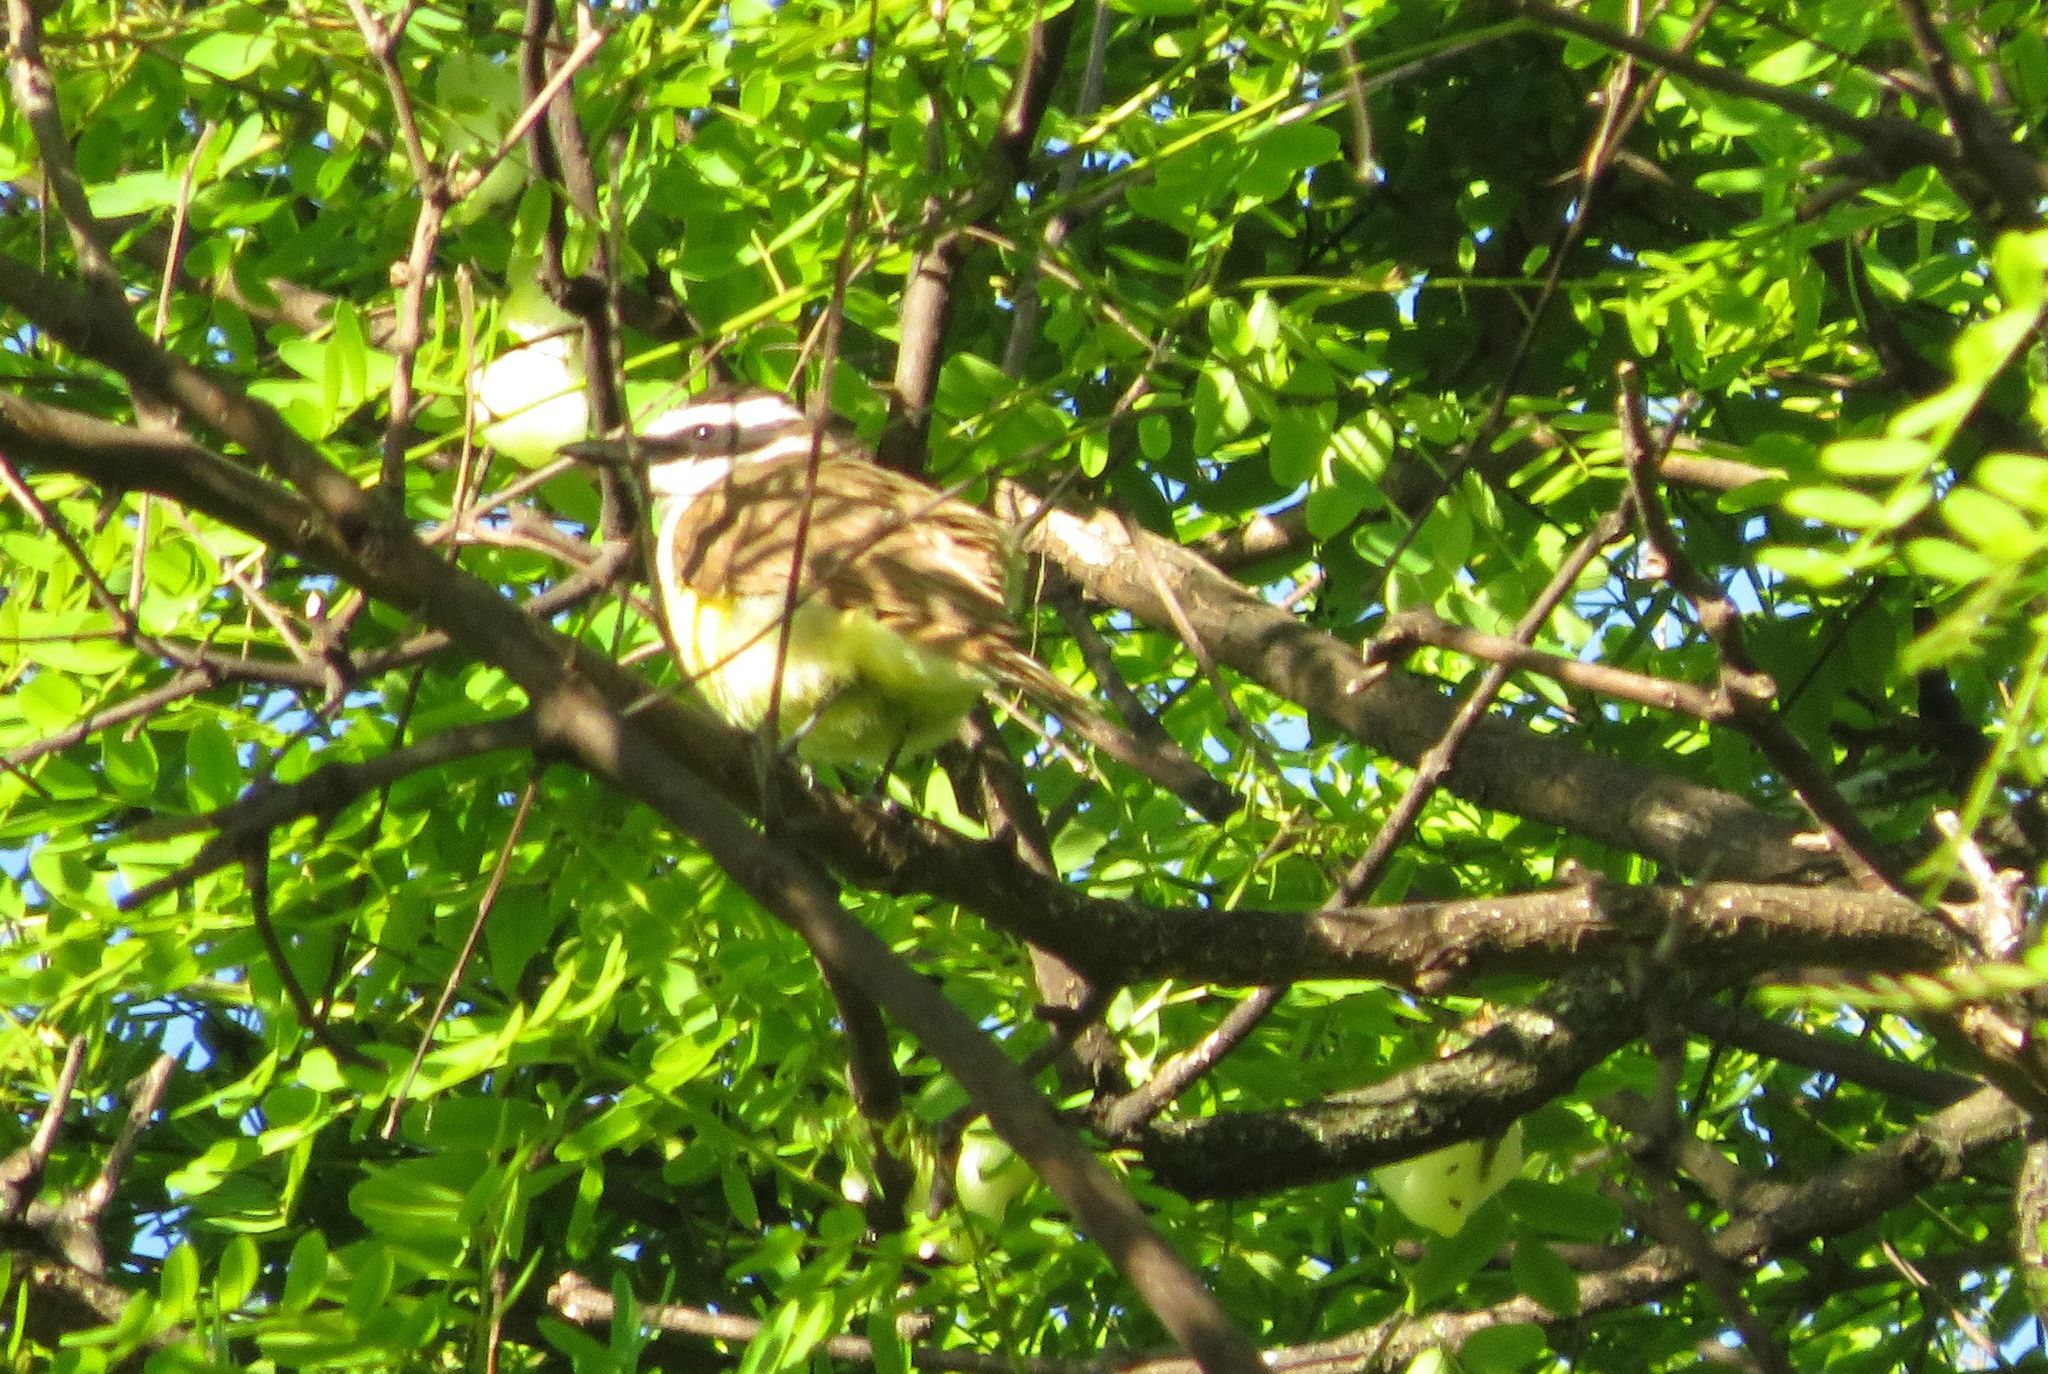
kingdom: Animalia
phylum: Chordata
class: Aves
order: Passeriformes
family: Tyrannidae
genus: Pitangus
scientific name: Pitangus sulphuratus
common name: Great kiskadee
